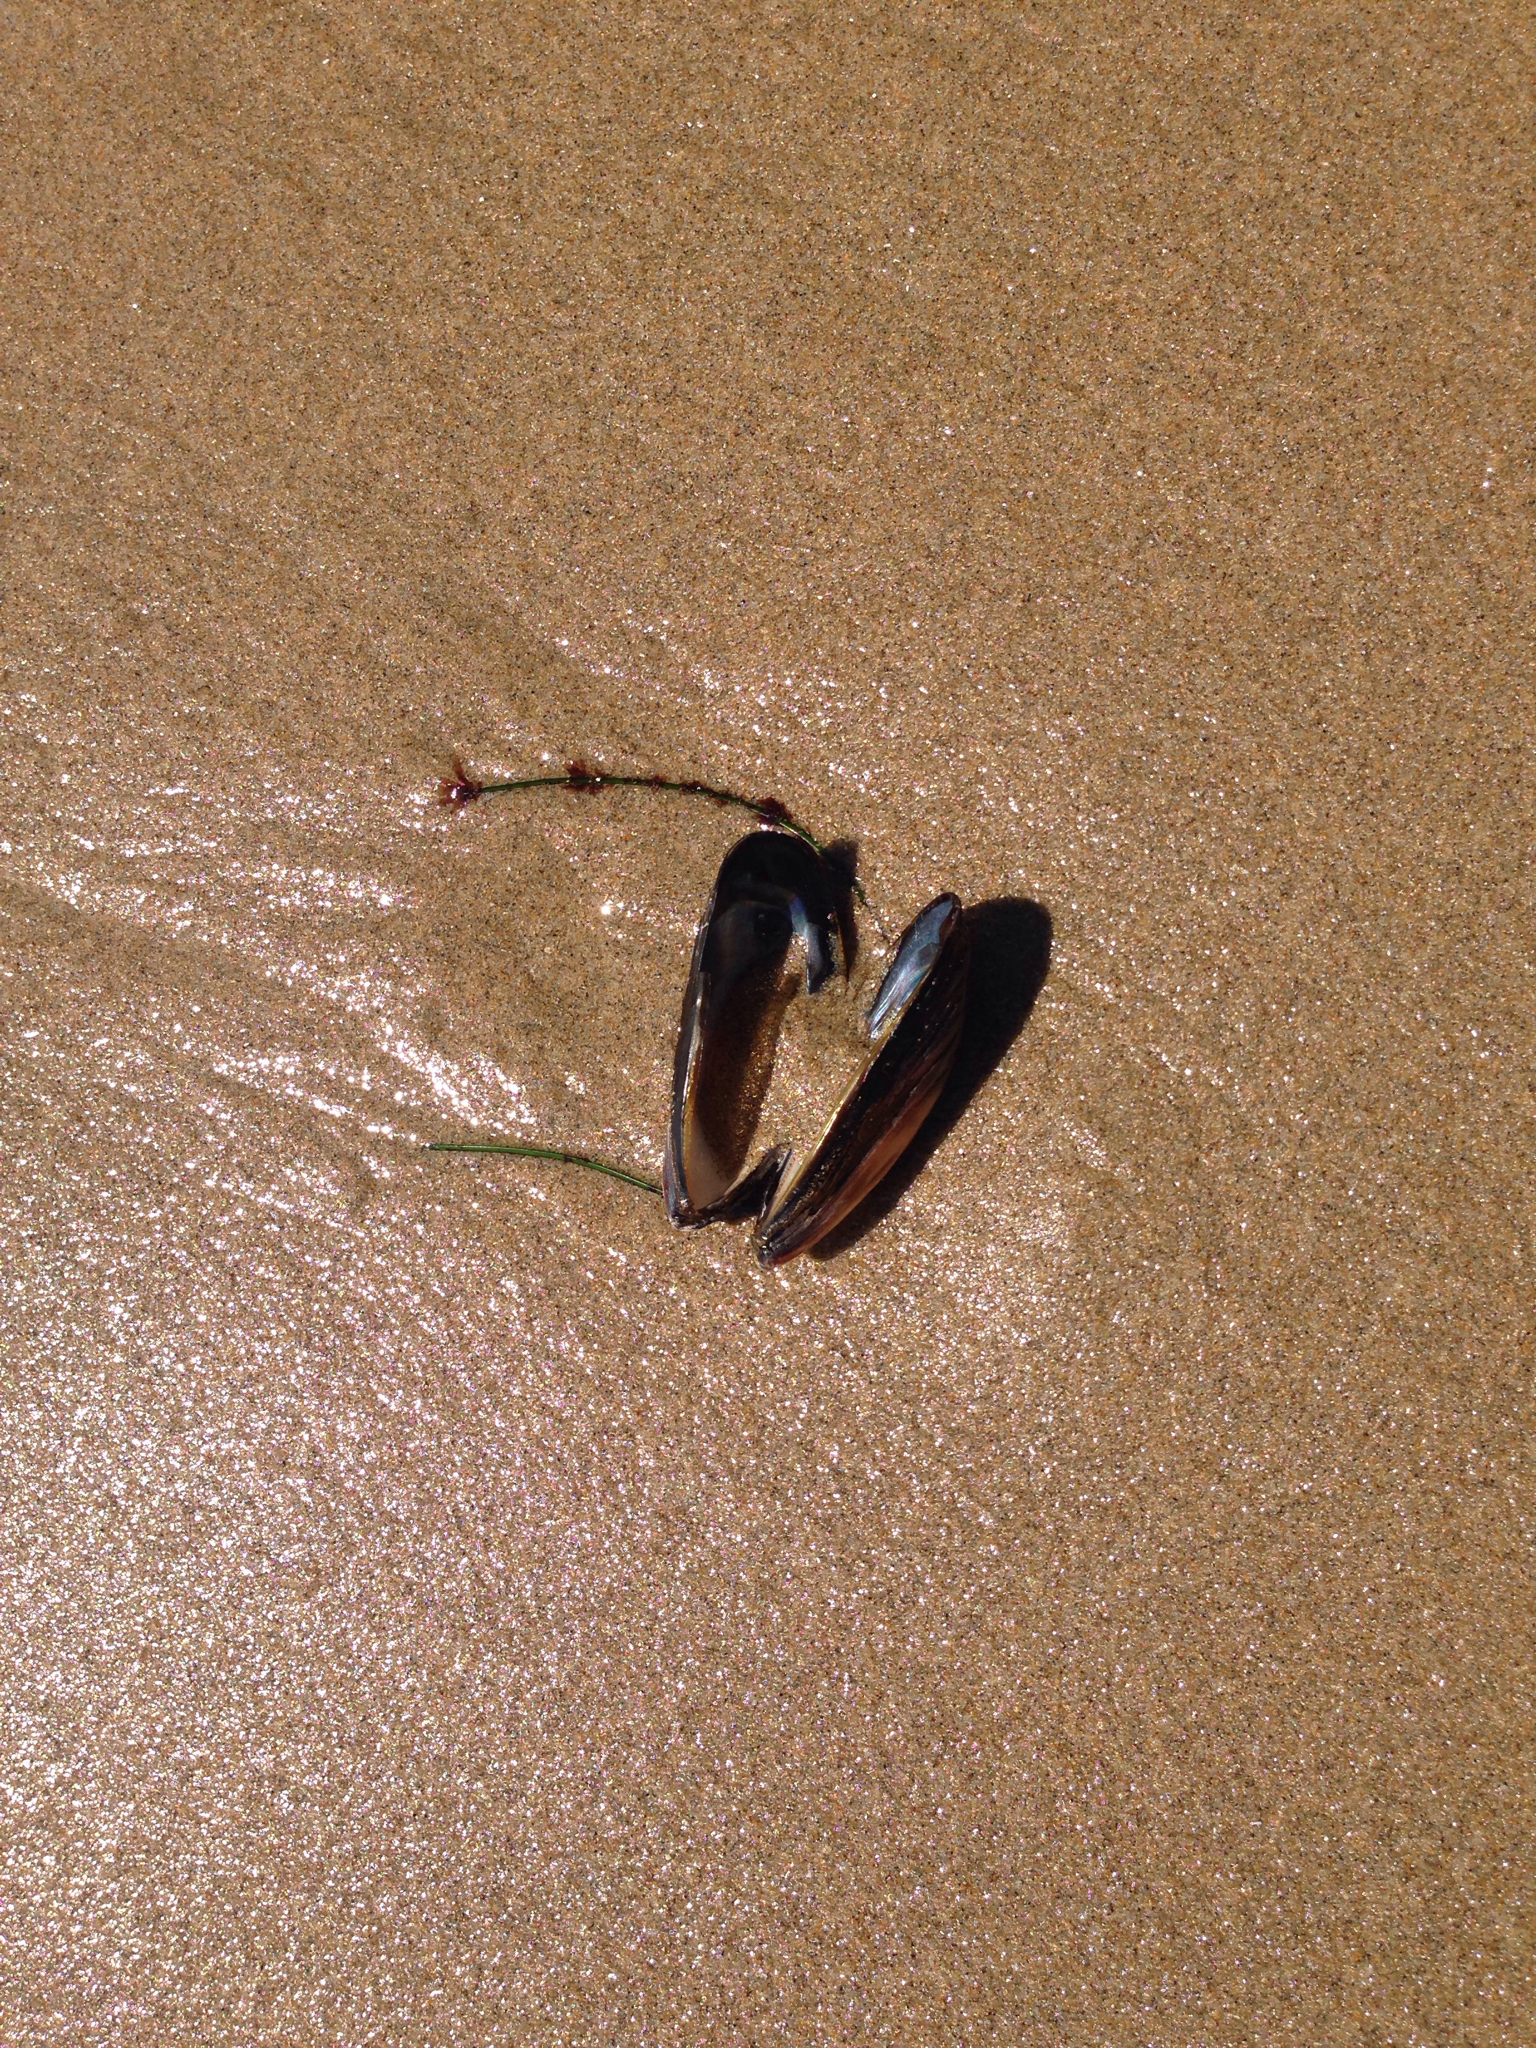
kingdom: Animalia
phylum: Mollusca
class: Bivalvia
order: Mytilida
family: Mytilidae
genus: Mytilus
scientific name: Mytilus californianus
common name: California mussel
